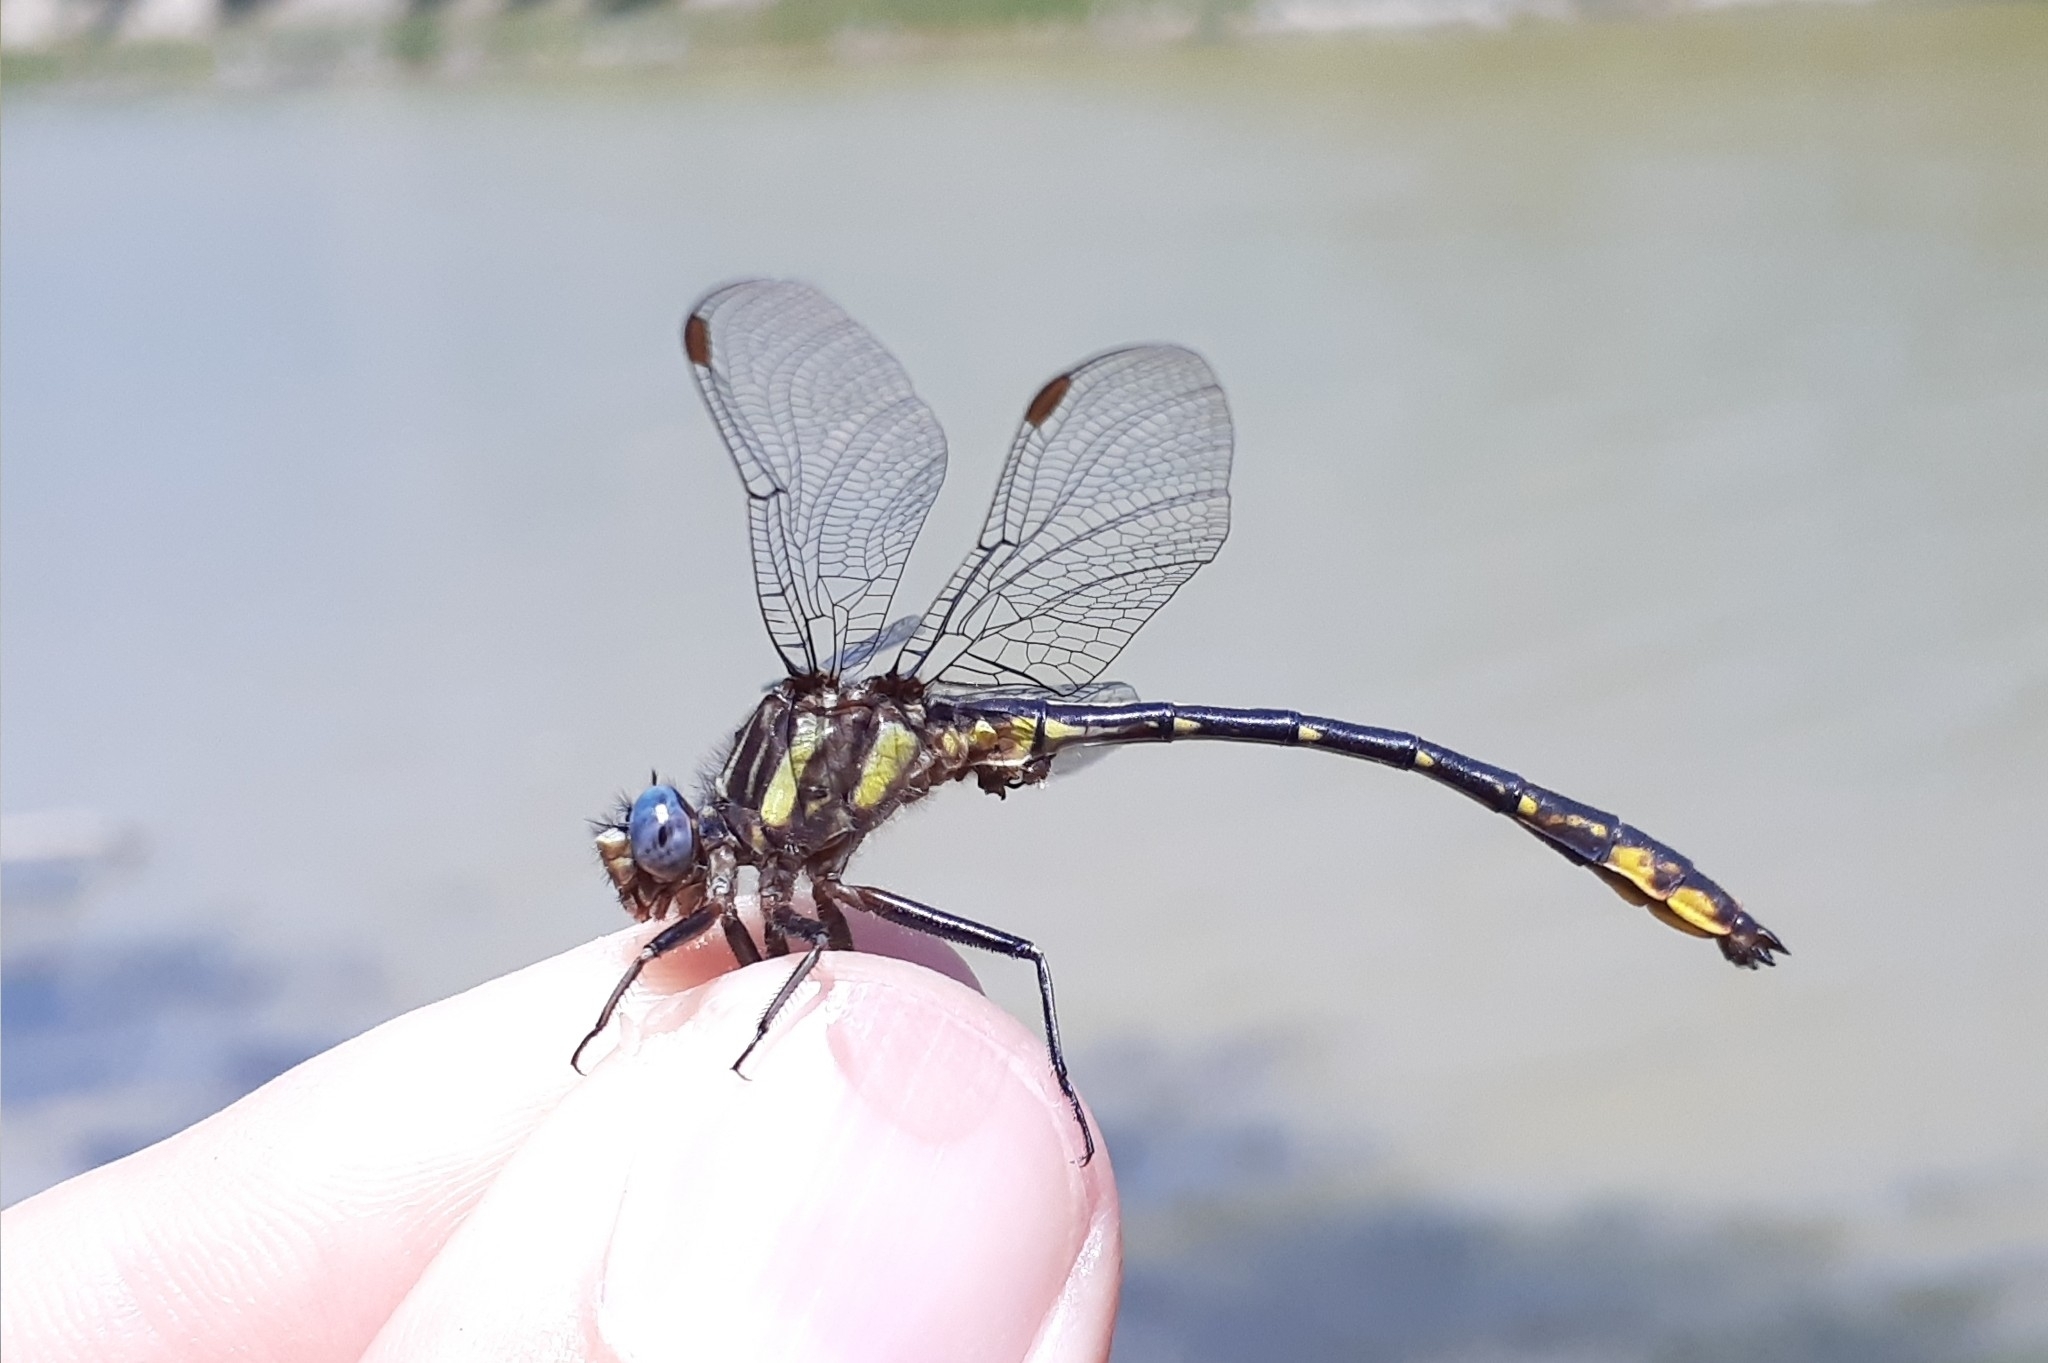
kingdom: Animalia
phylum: Arthropoda
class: Insecta
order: Odonata
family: Gomphidae
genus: Phanogomphus
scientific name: Phanogomphus exilis
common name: Lancet clubtail
